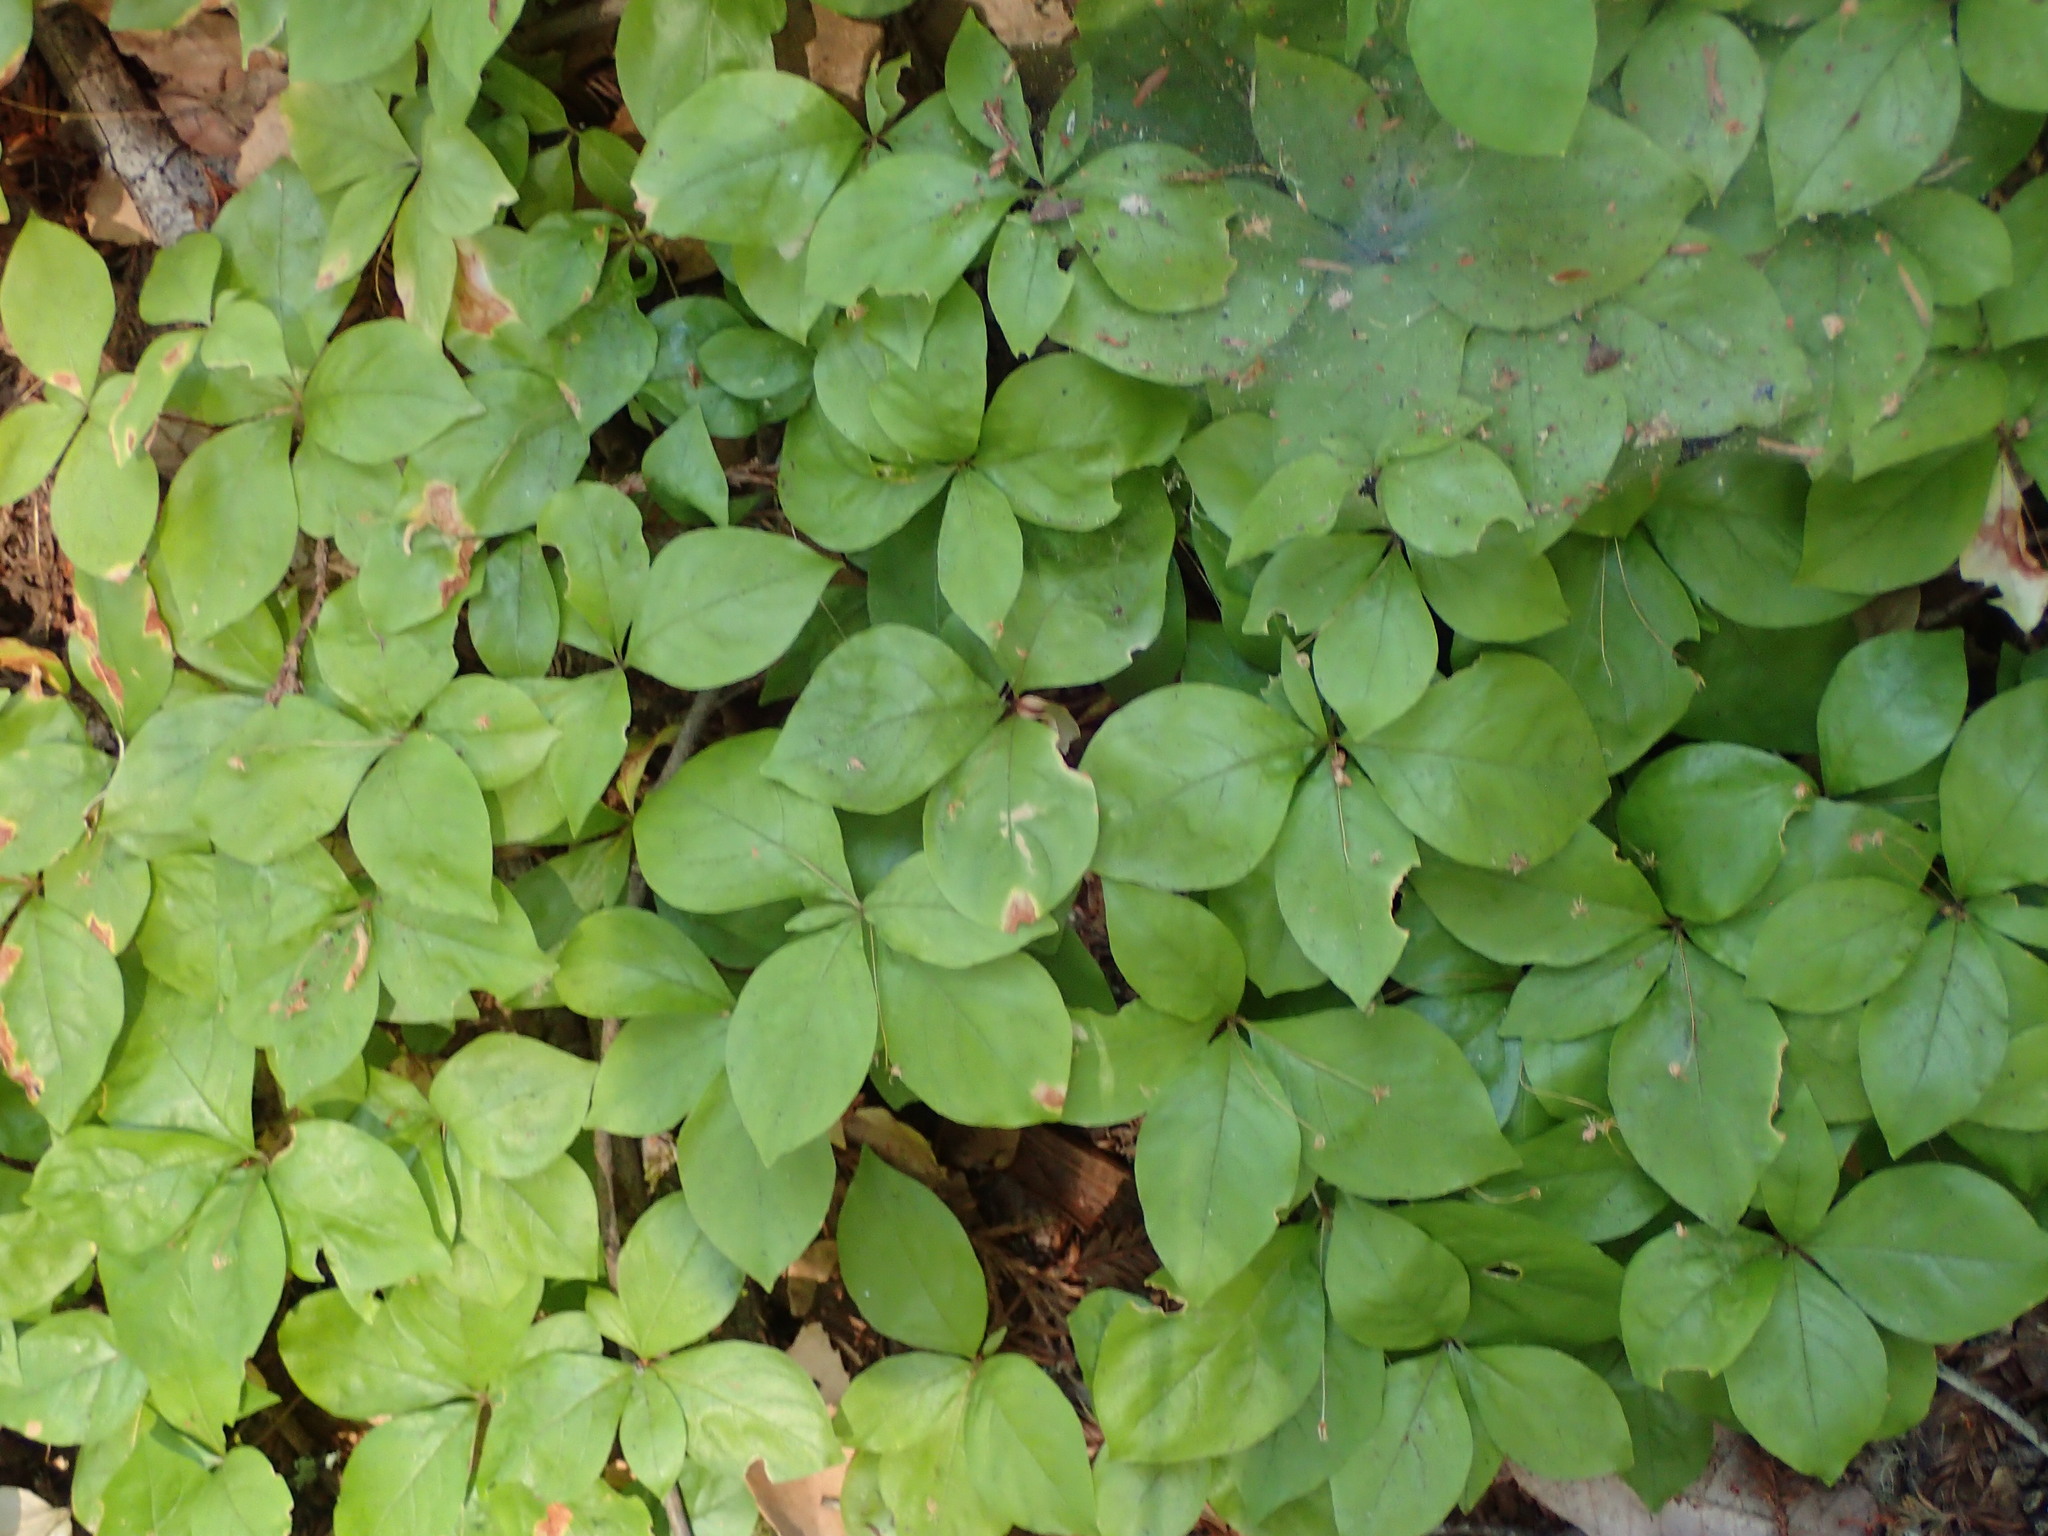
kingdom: Plantae
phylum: Tracheophyta
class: Magnoliopsida
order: Ericales
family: Primulaceae
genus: Lysimachia
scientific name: Lysimachia latifolia
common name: Pacific starflower
